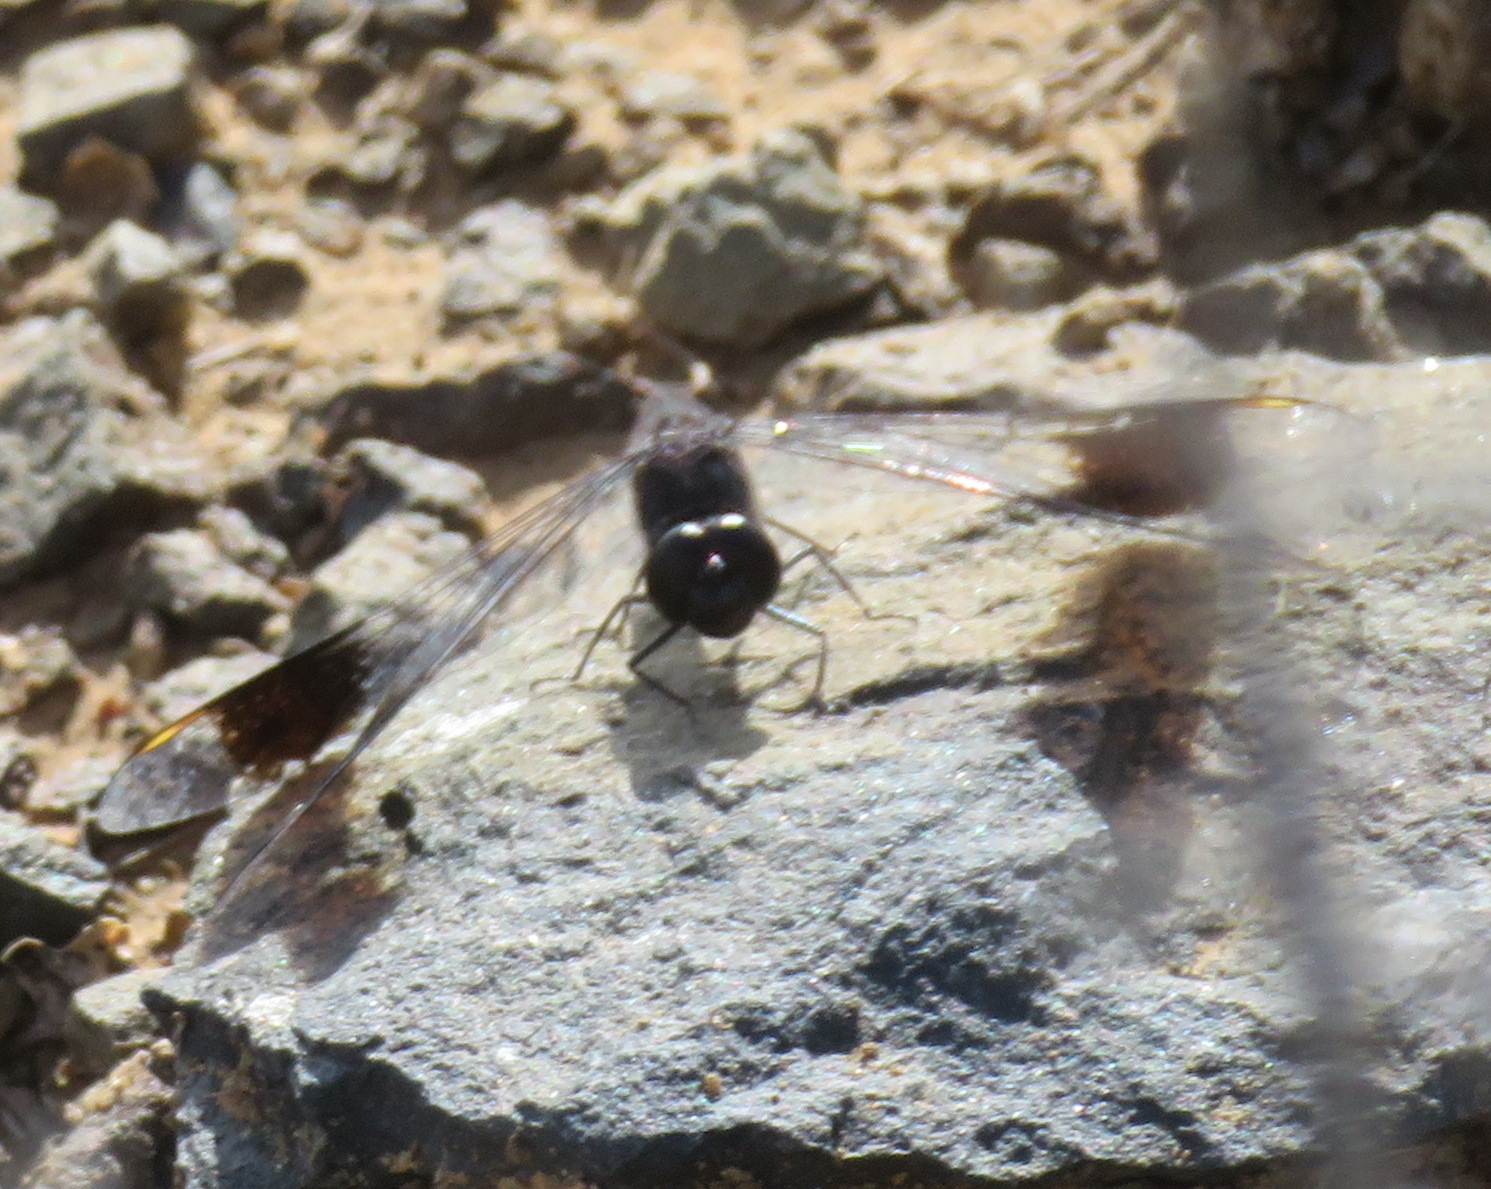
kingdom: Animalia
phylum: Arthropoda
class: Insecta
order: Odonata
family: Libellulidae
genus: Brachythemis
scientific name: Brachythemis leucosticta
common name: Banded groundling
